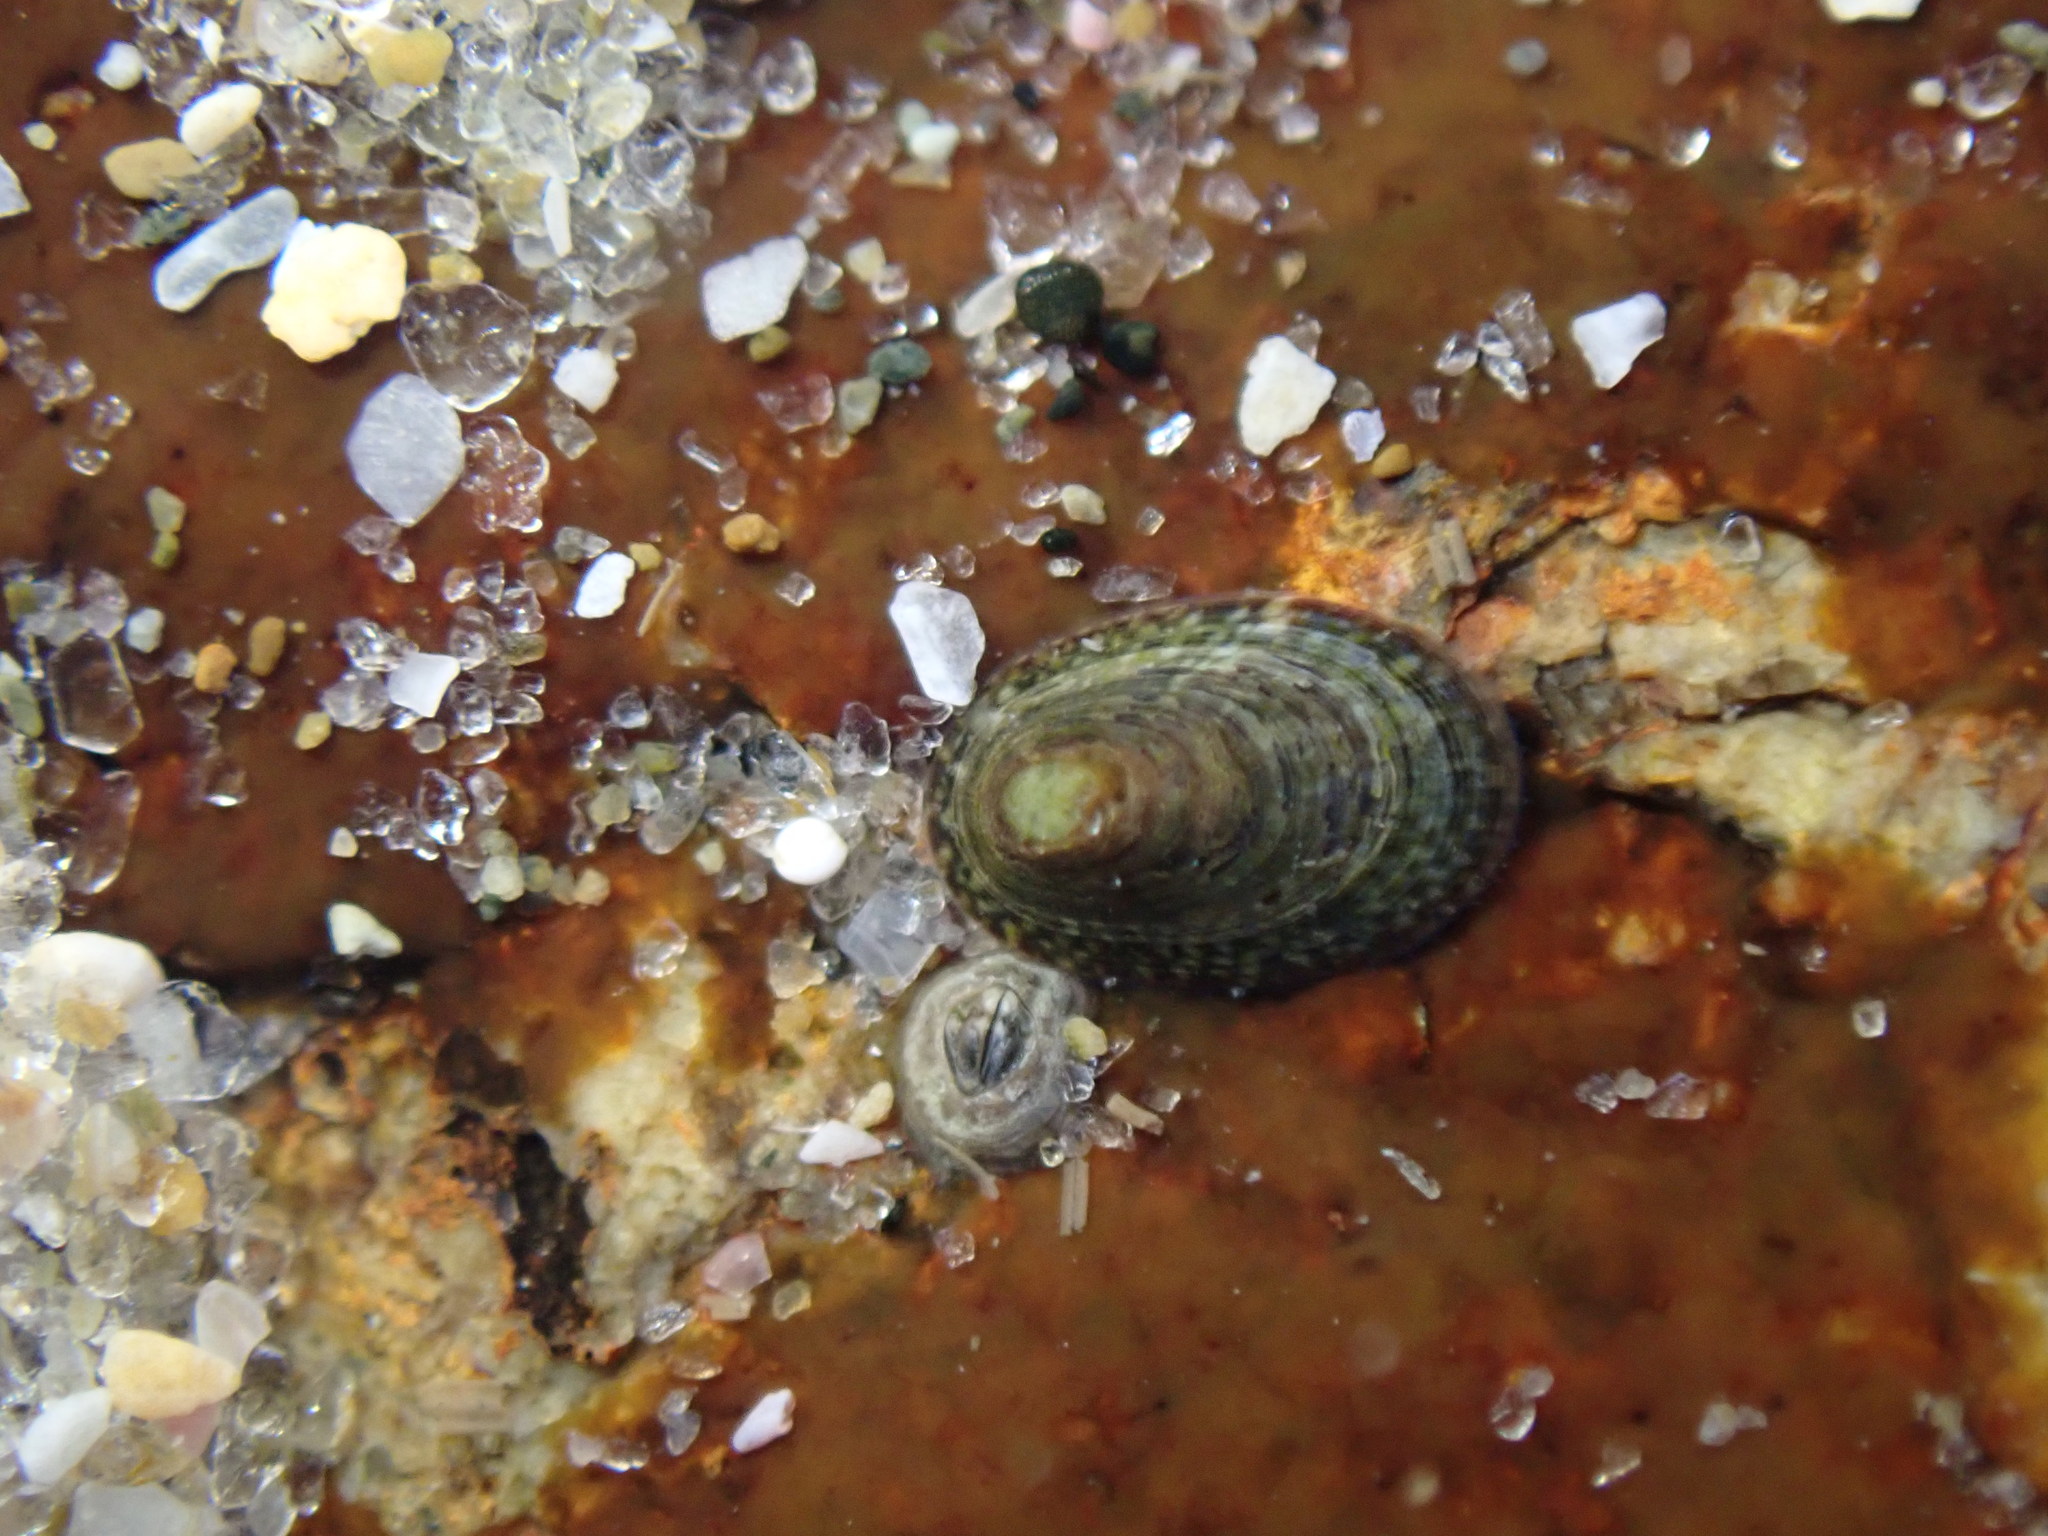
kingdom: Animalia
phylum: Mollusca
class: Gastropoda
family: Lottiidae
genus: Notoacmea
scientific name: Notoacmea scapha
